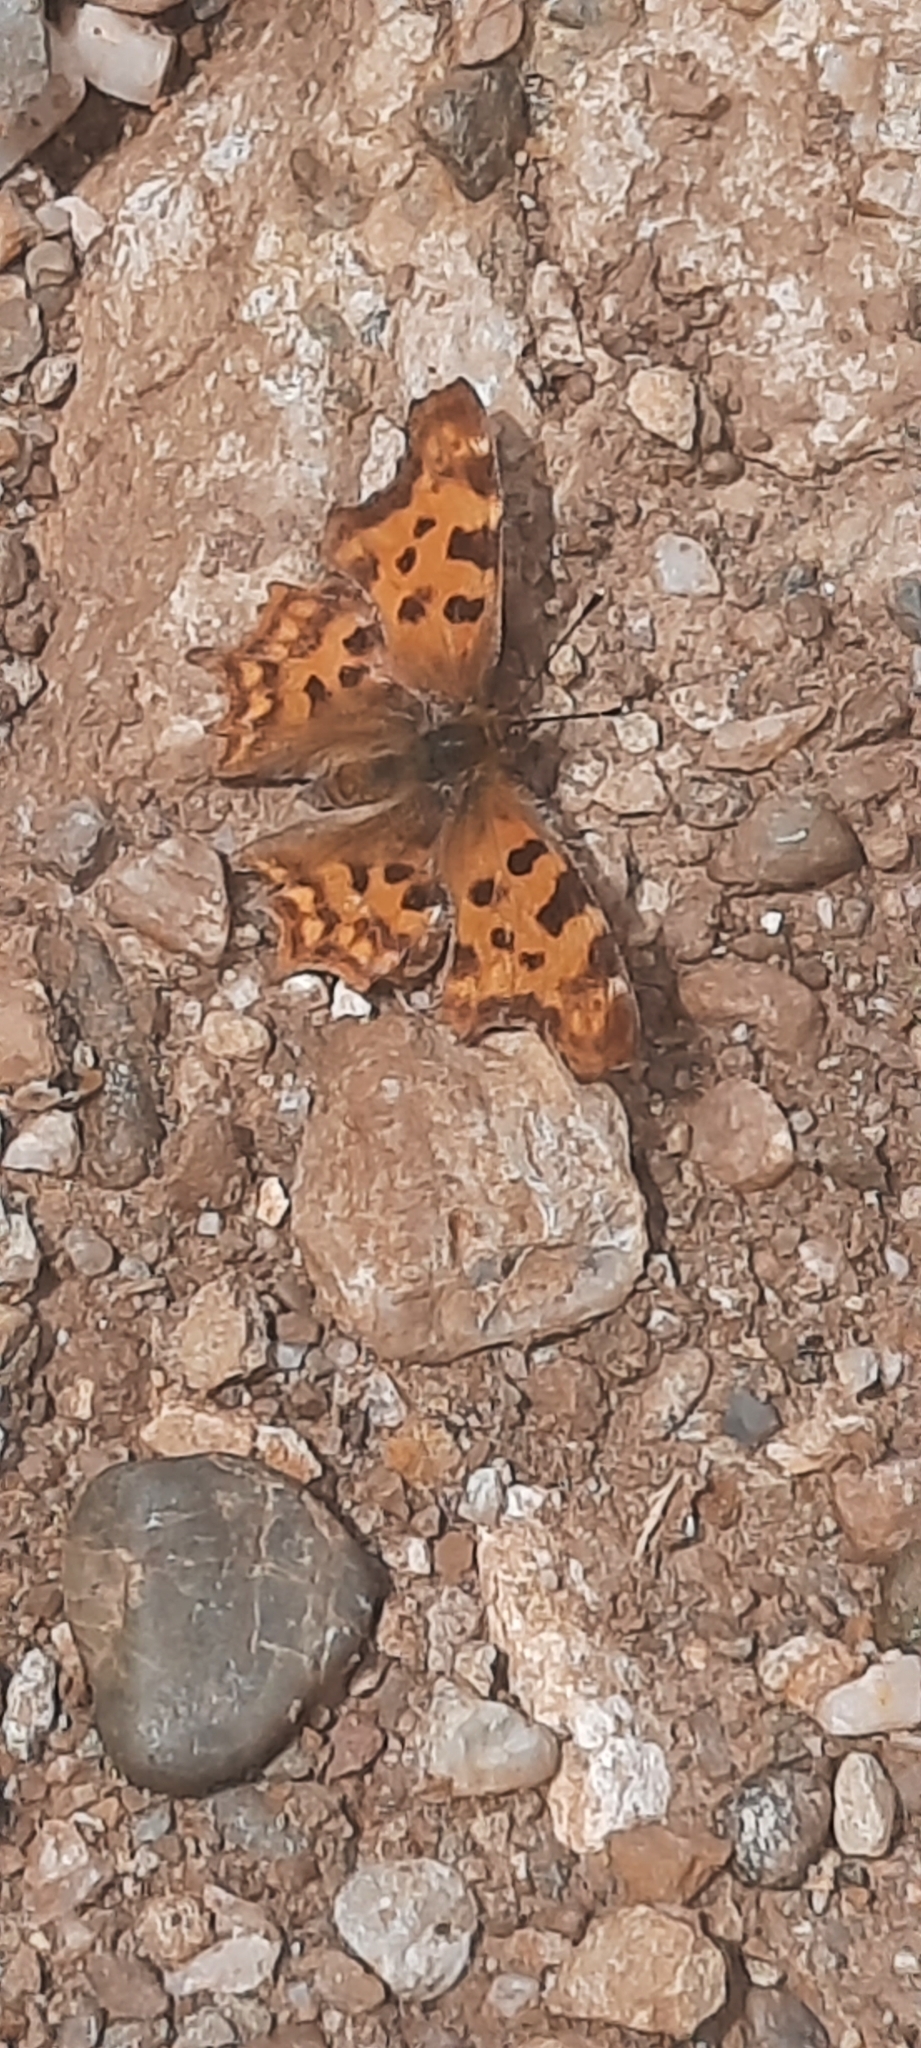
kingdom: Animalia
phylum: Arthropoda
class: Insecta
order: Lepidoptera
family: Nymphalidae
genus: Polygonia
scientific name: Polygonia c-album
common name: Comma
